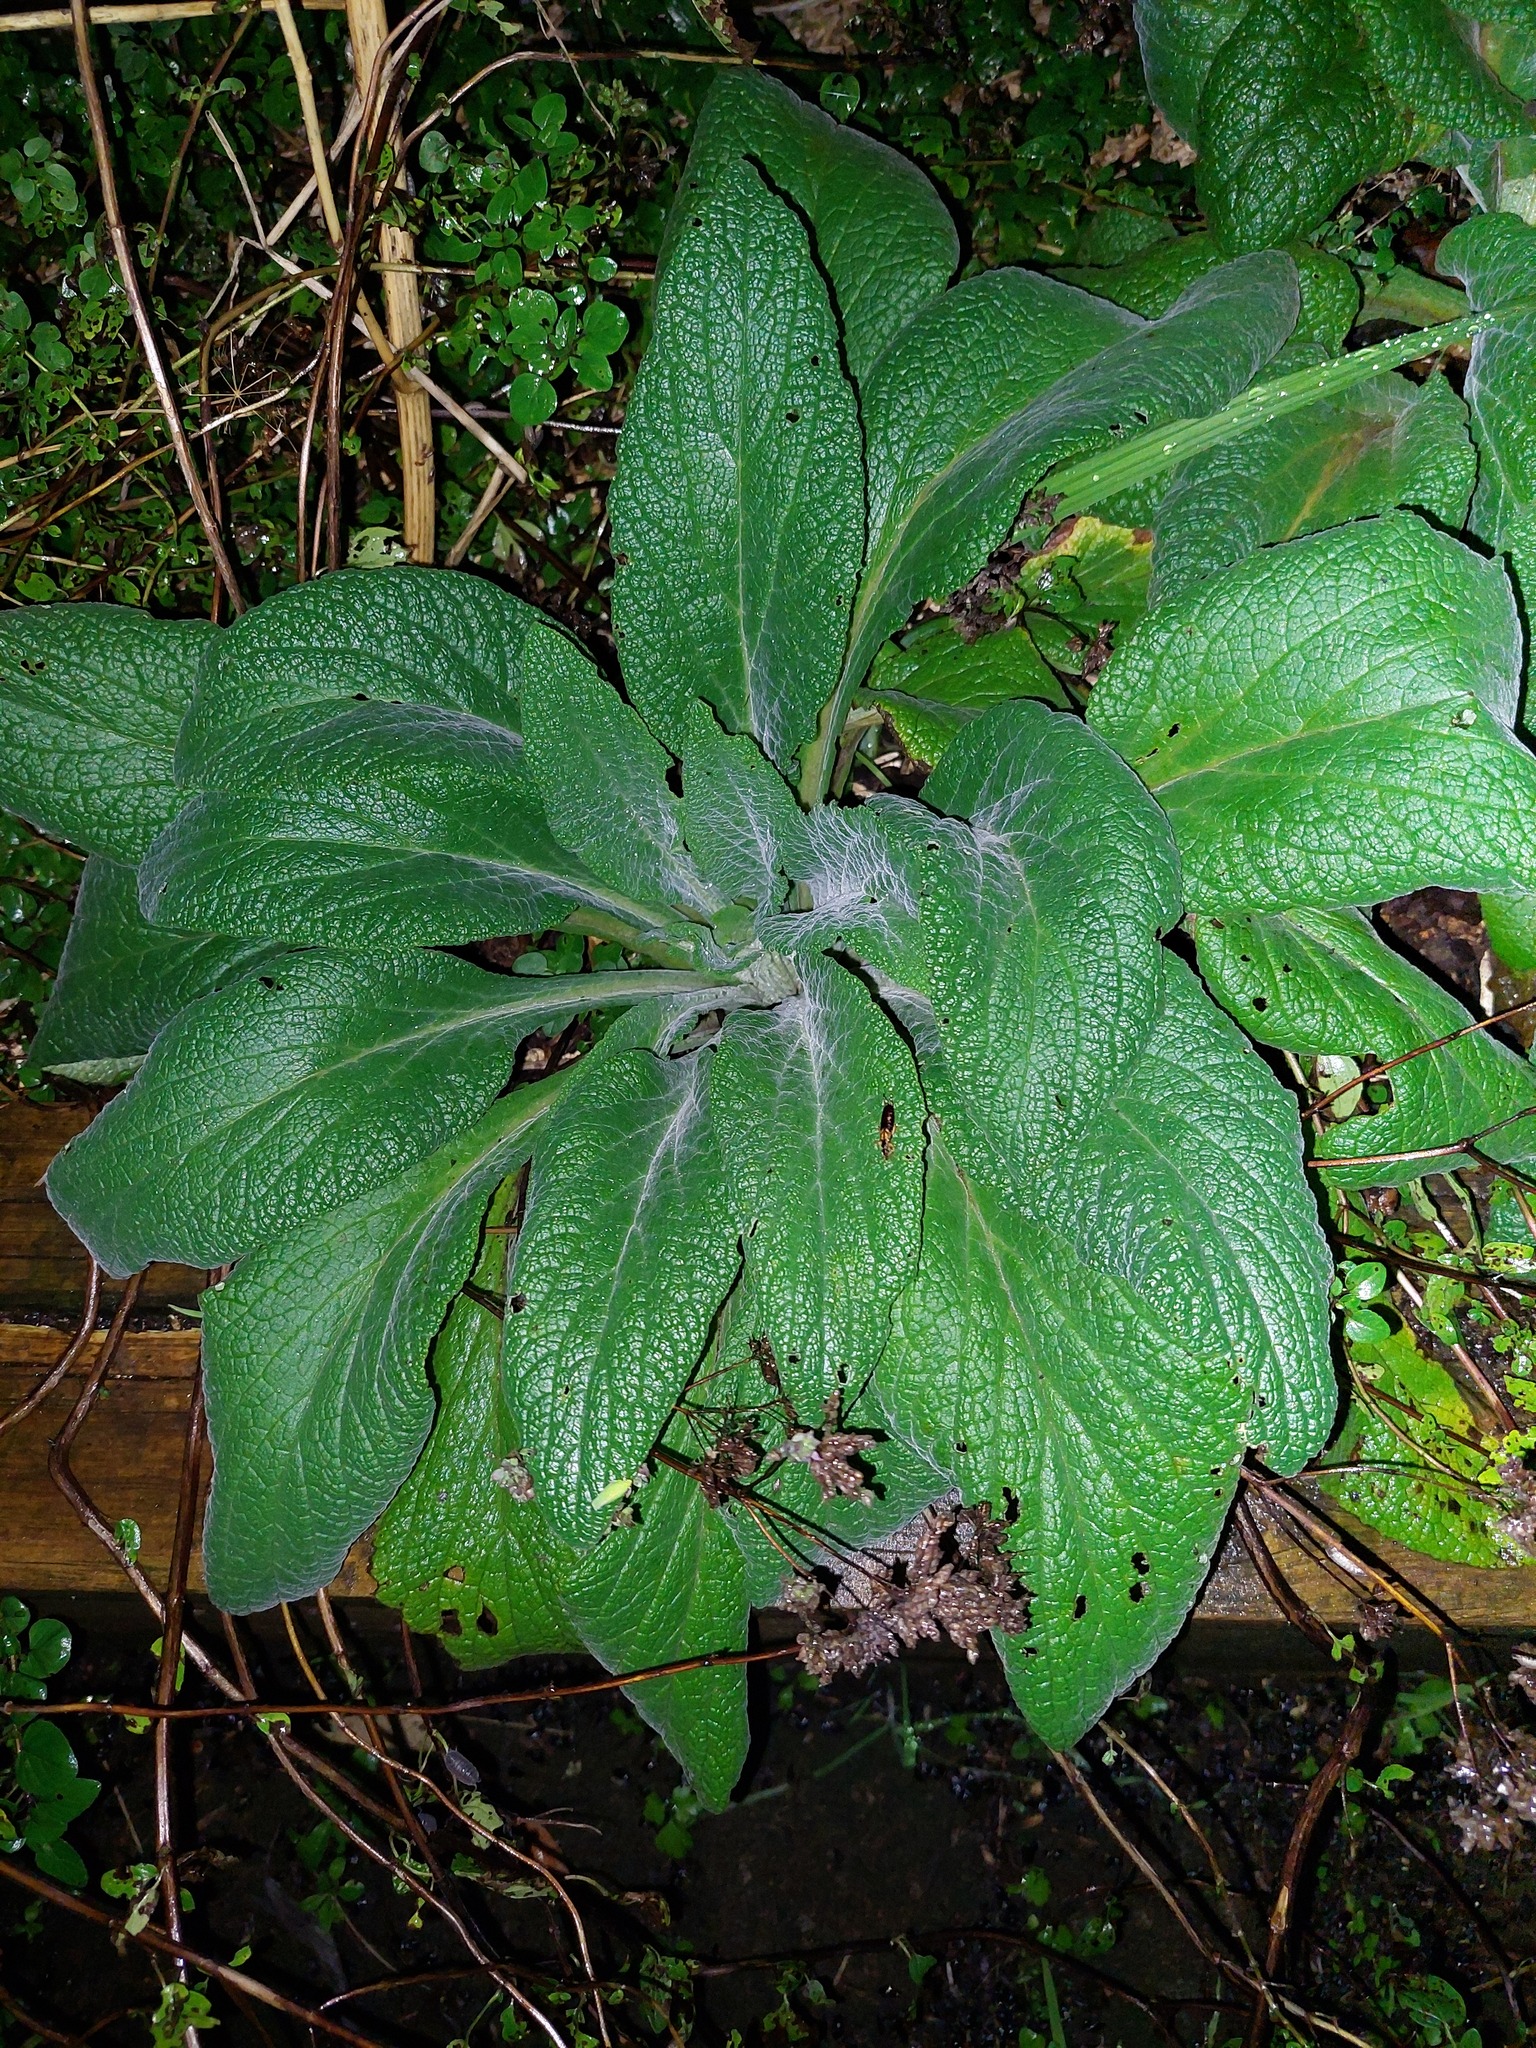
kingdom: Plantae
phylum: Tracheophyta
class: Magnoliopsida
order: Lamiales
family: Plantaginaceae
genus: Digitalis
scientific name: Digitalis purpurea
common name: Foxglove
